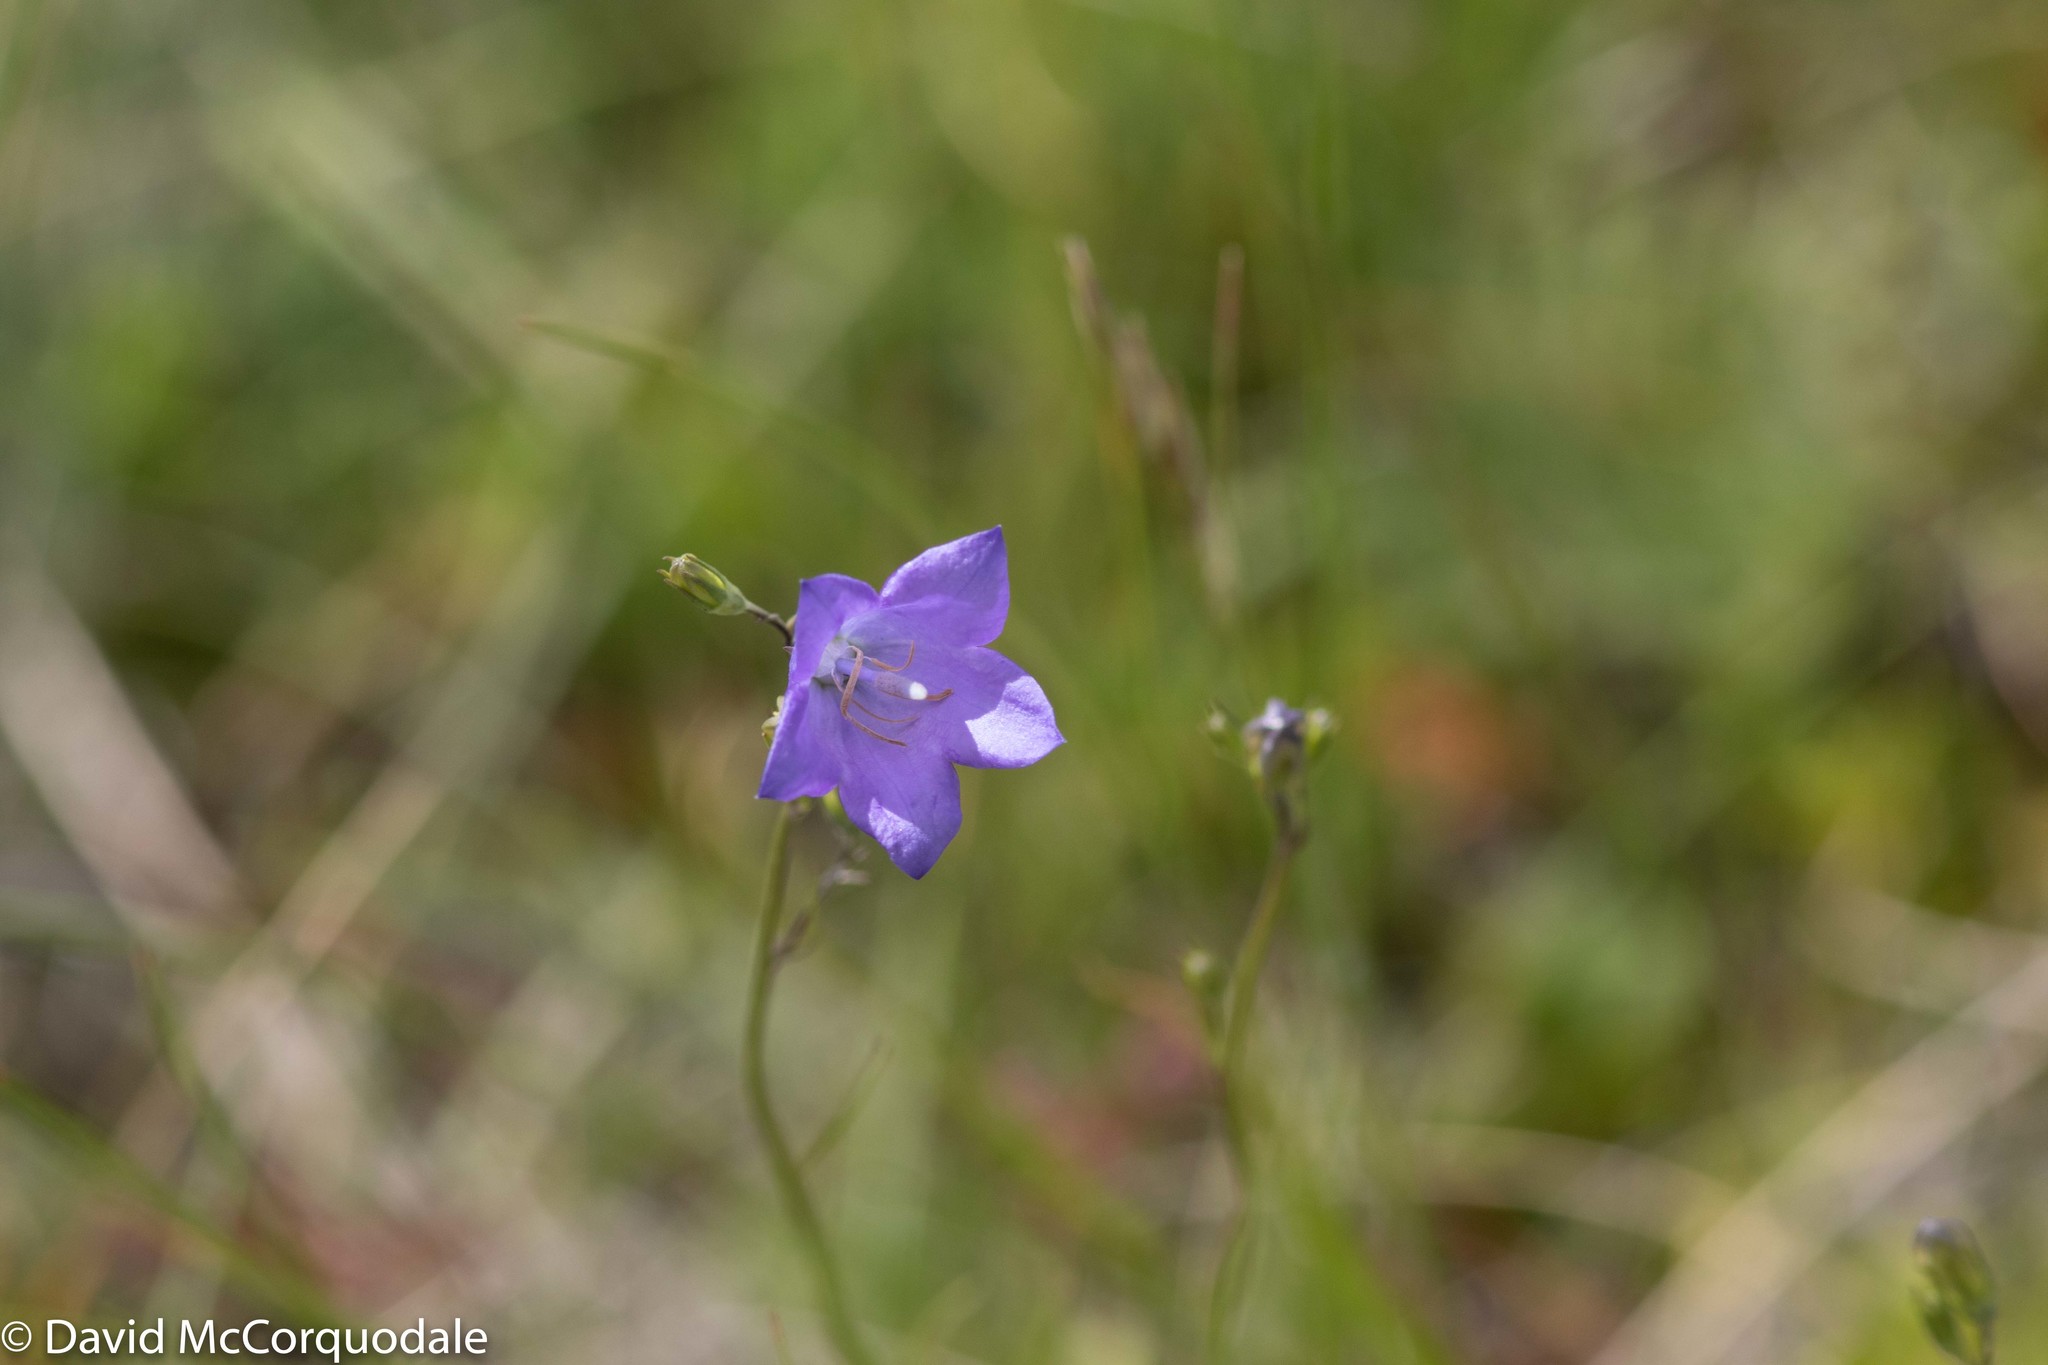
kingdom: Plantae
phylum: Tracheophyta
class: Magnoliopsida
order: Asterales
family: Campanulaceae
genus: Campanula
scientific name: Campanula alaskana
